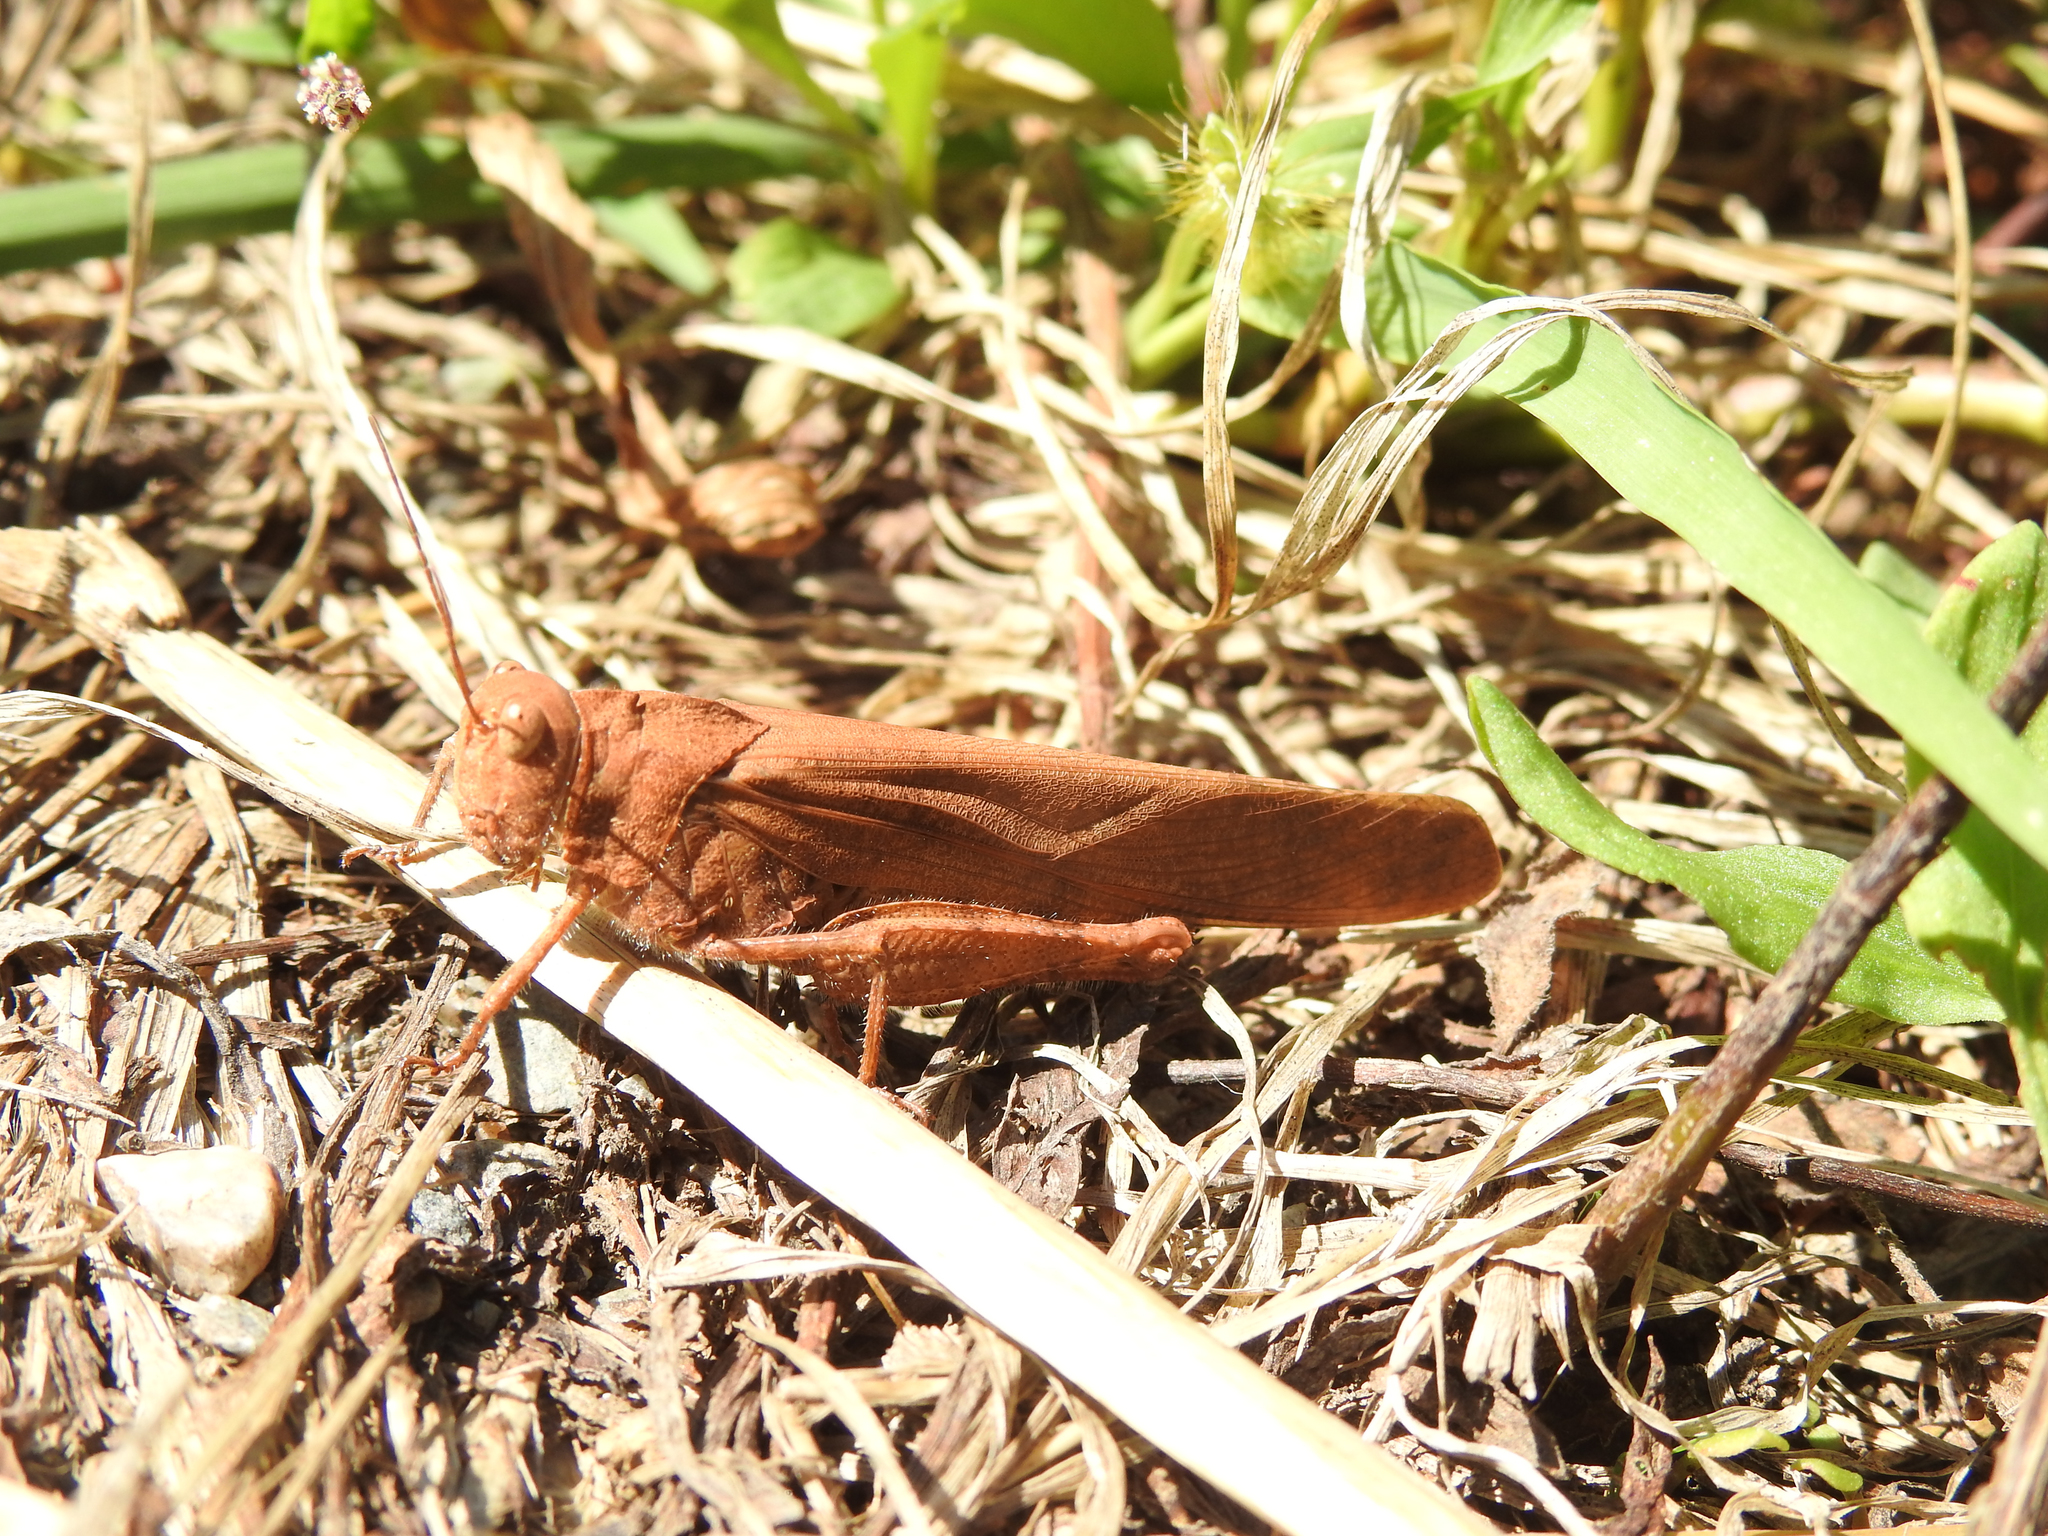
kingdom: Animalia
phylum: Arthropoda
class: Insecta
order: Orthoptera
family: Acrididae
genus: Dissosteira
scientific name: Dissosteira carolina
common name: Carolina grasshopper
